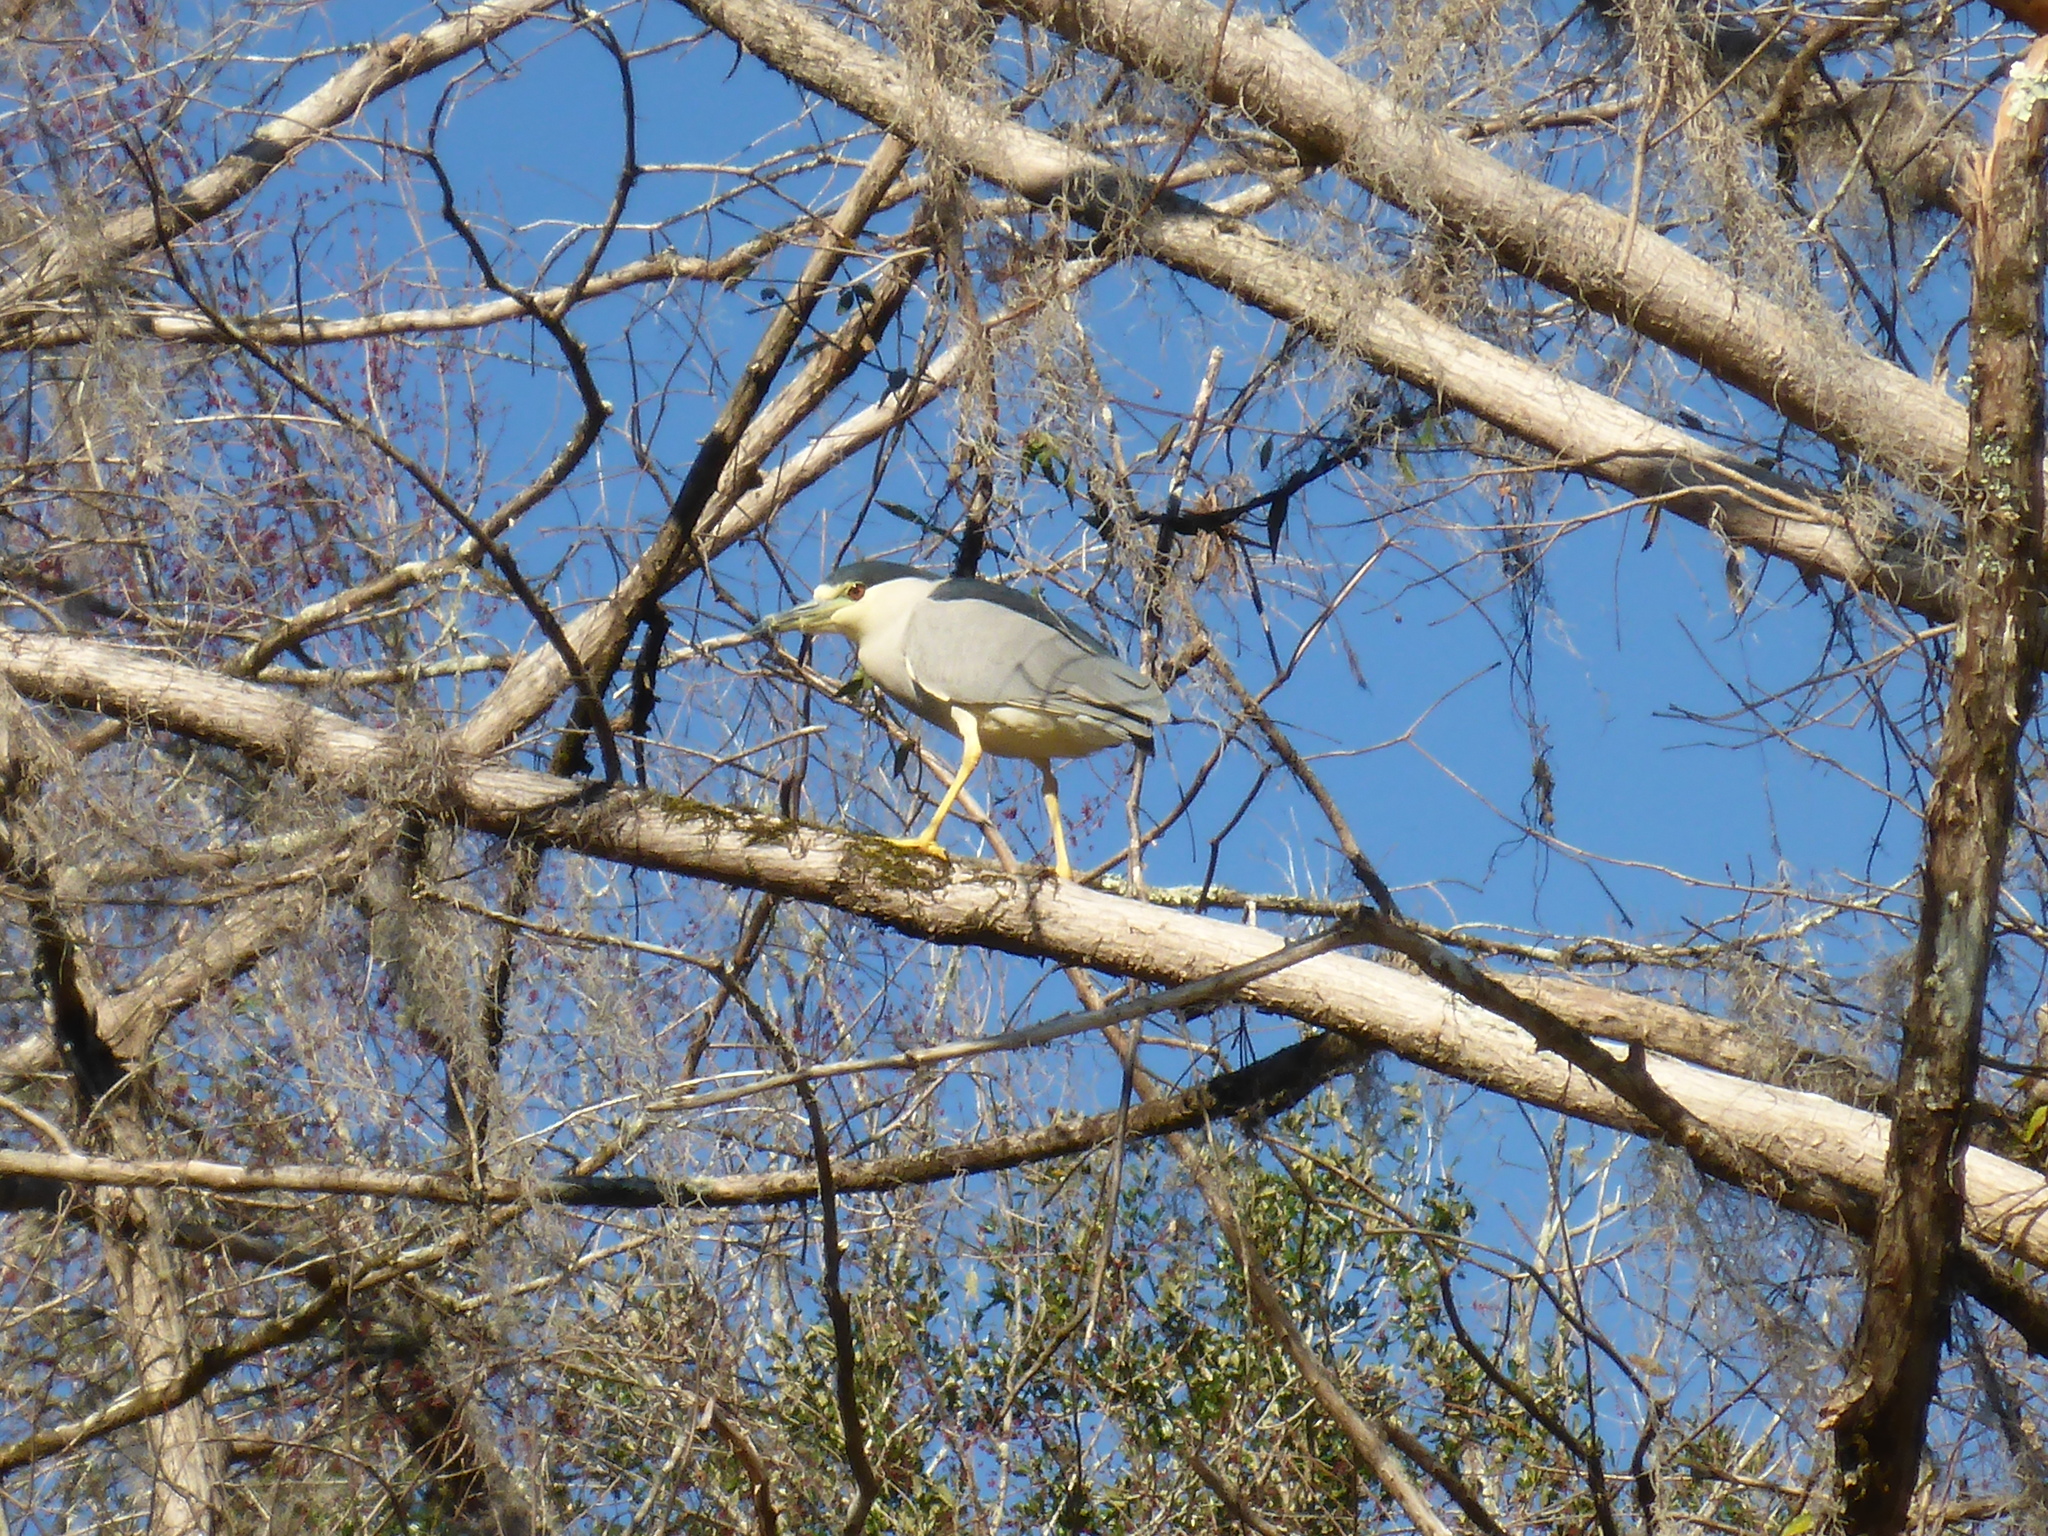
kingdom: Animalia
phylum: Chordata
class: Aves
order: Pelecaniformes
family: Ardeidae
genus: Nycticorax
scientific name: Nycticorax nycticorax
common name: Black-crowned night heron
